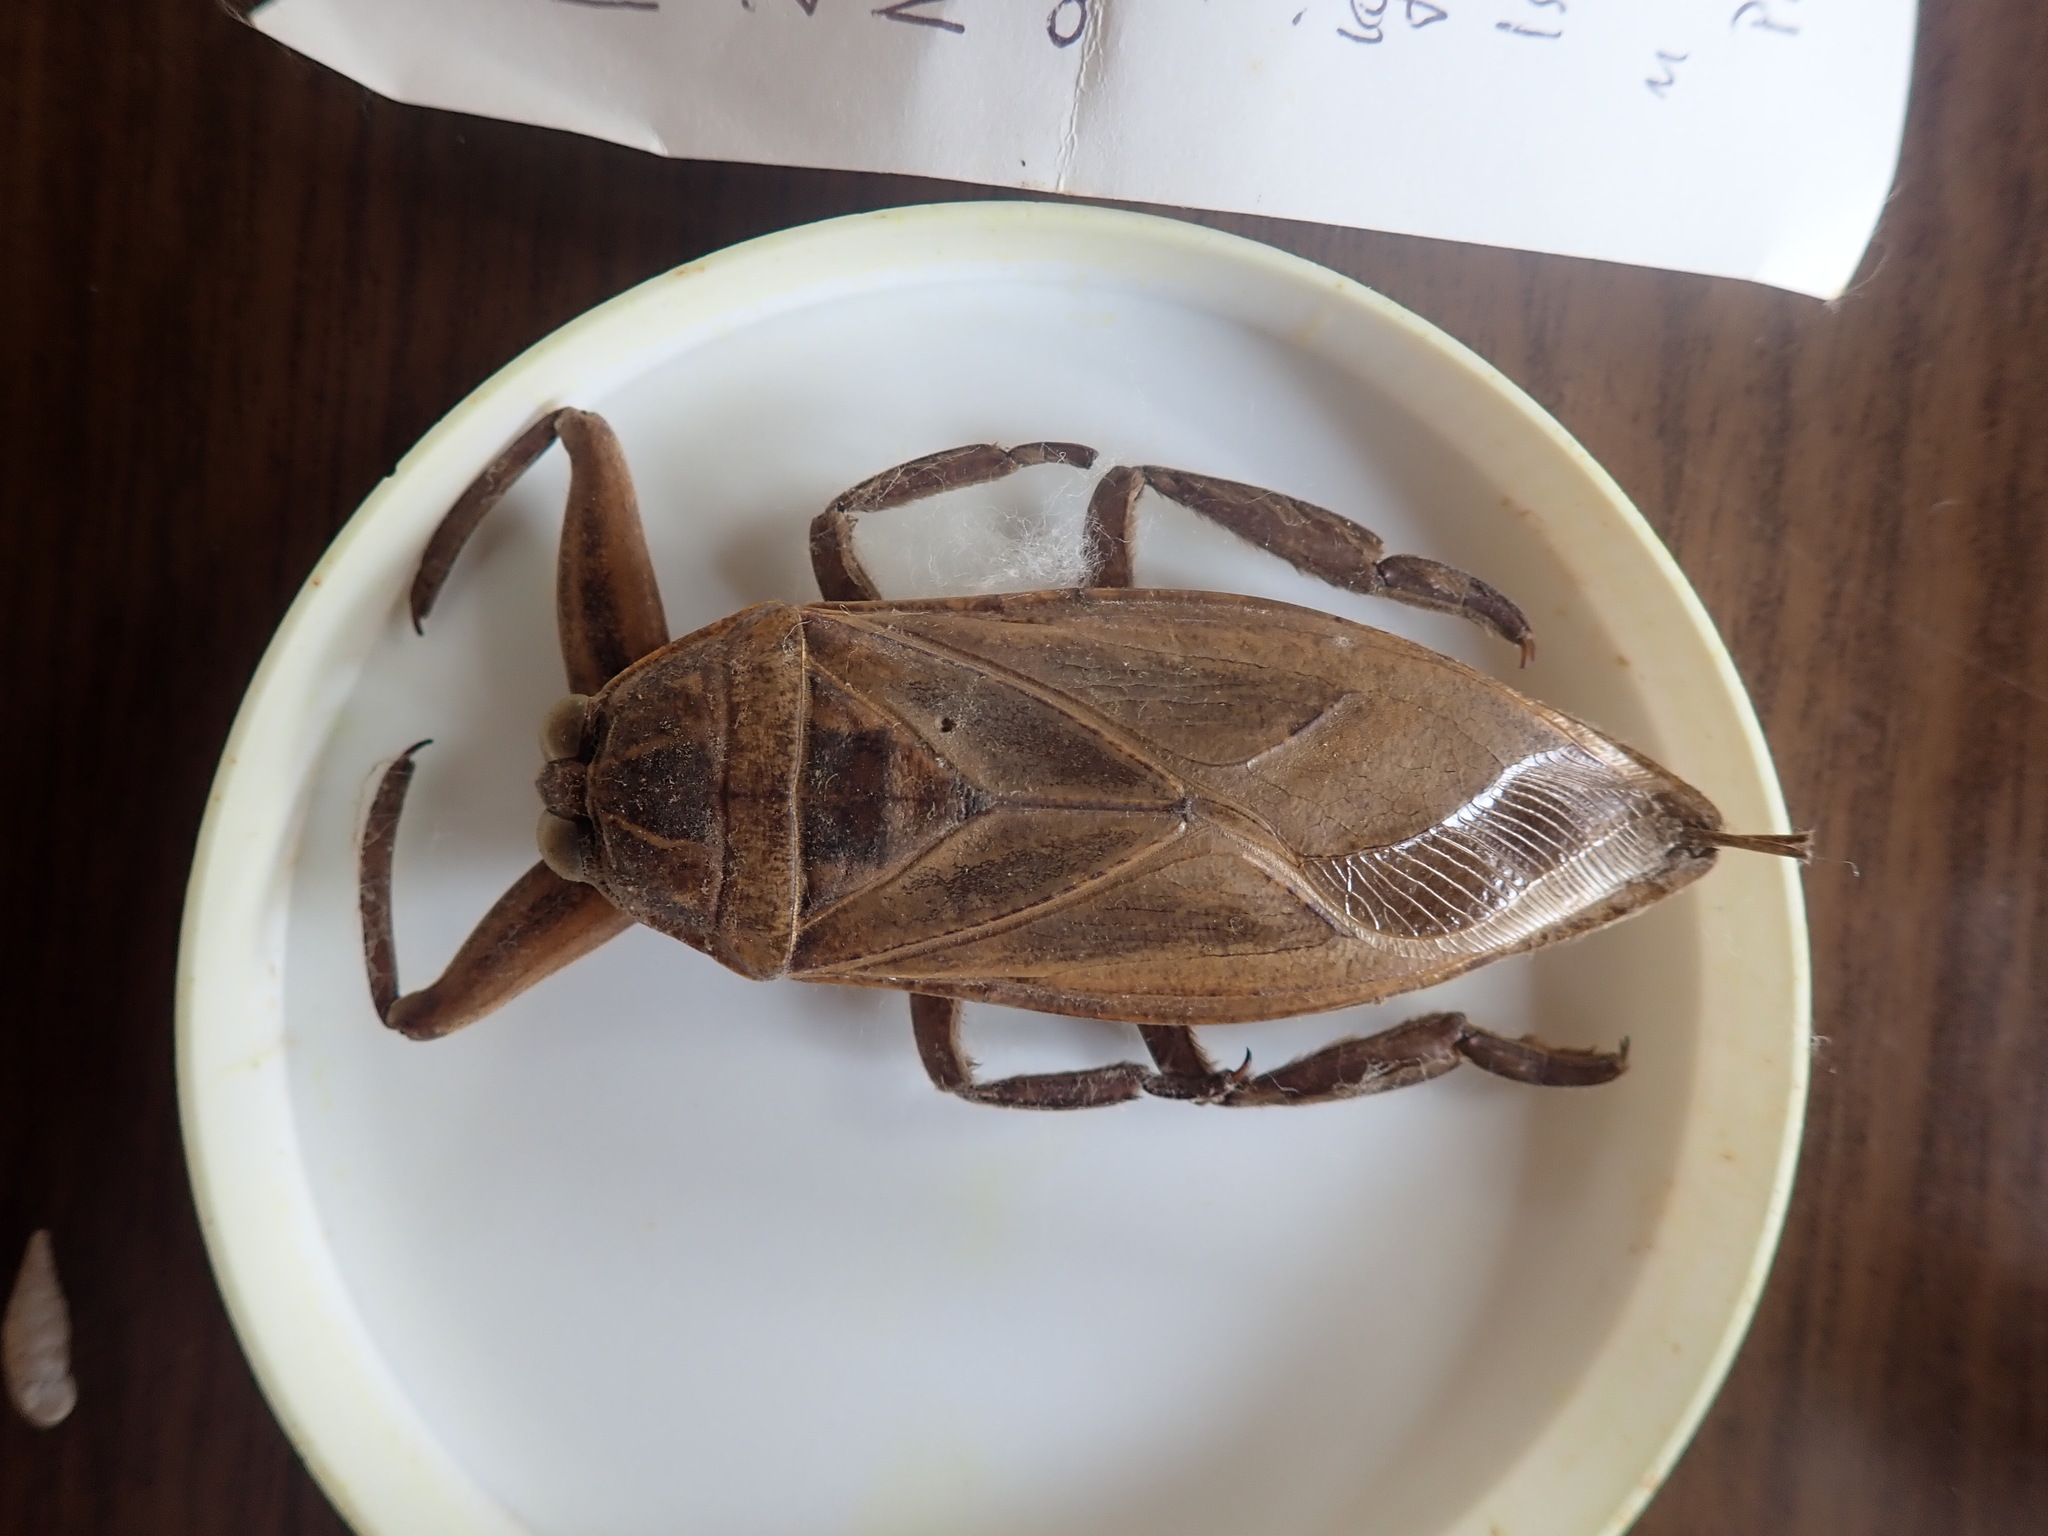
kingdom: Animalia
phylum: Arthropoda
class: Insecta
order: Hemiptera
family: Belostomatidae
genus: Lethocerus
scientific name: Lethocerus patruelis
